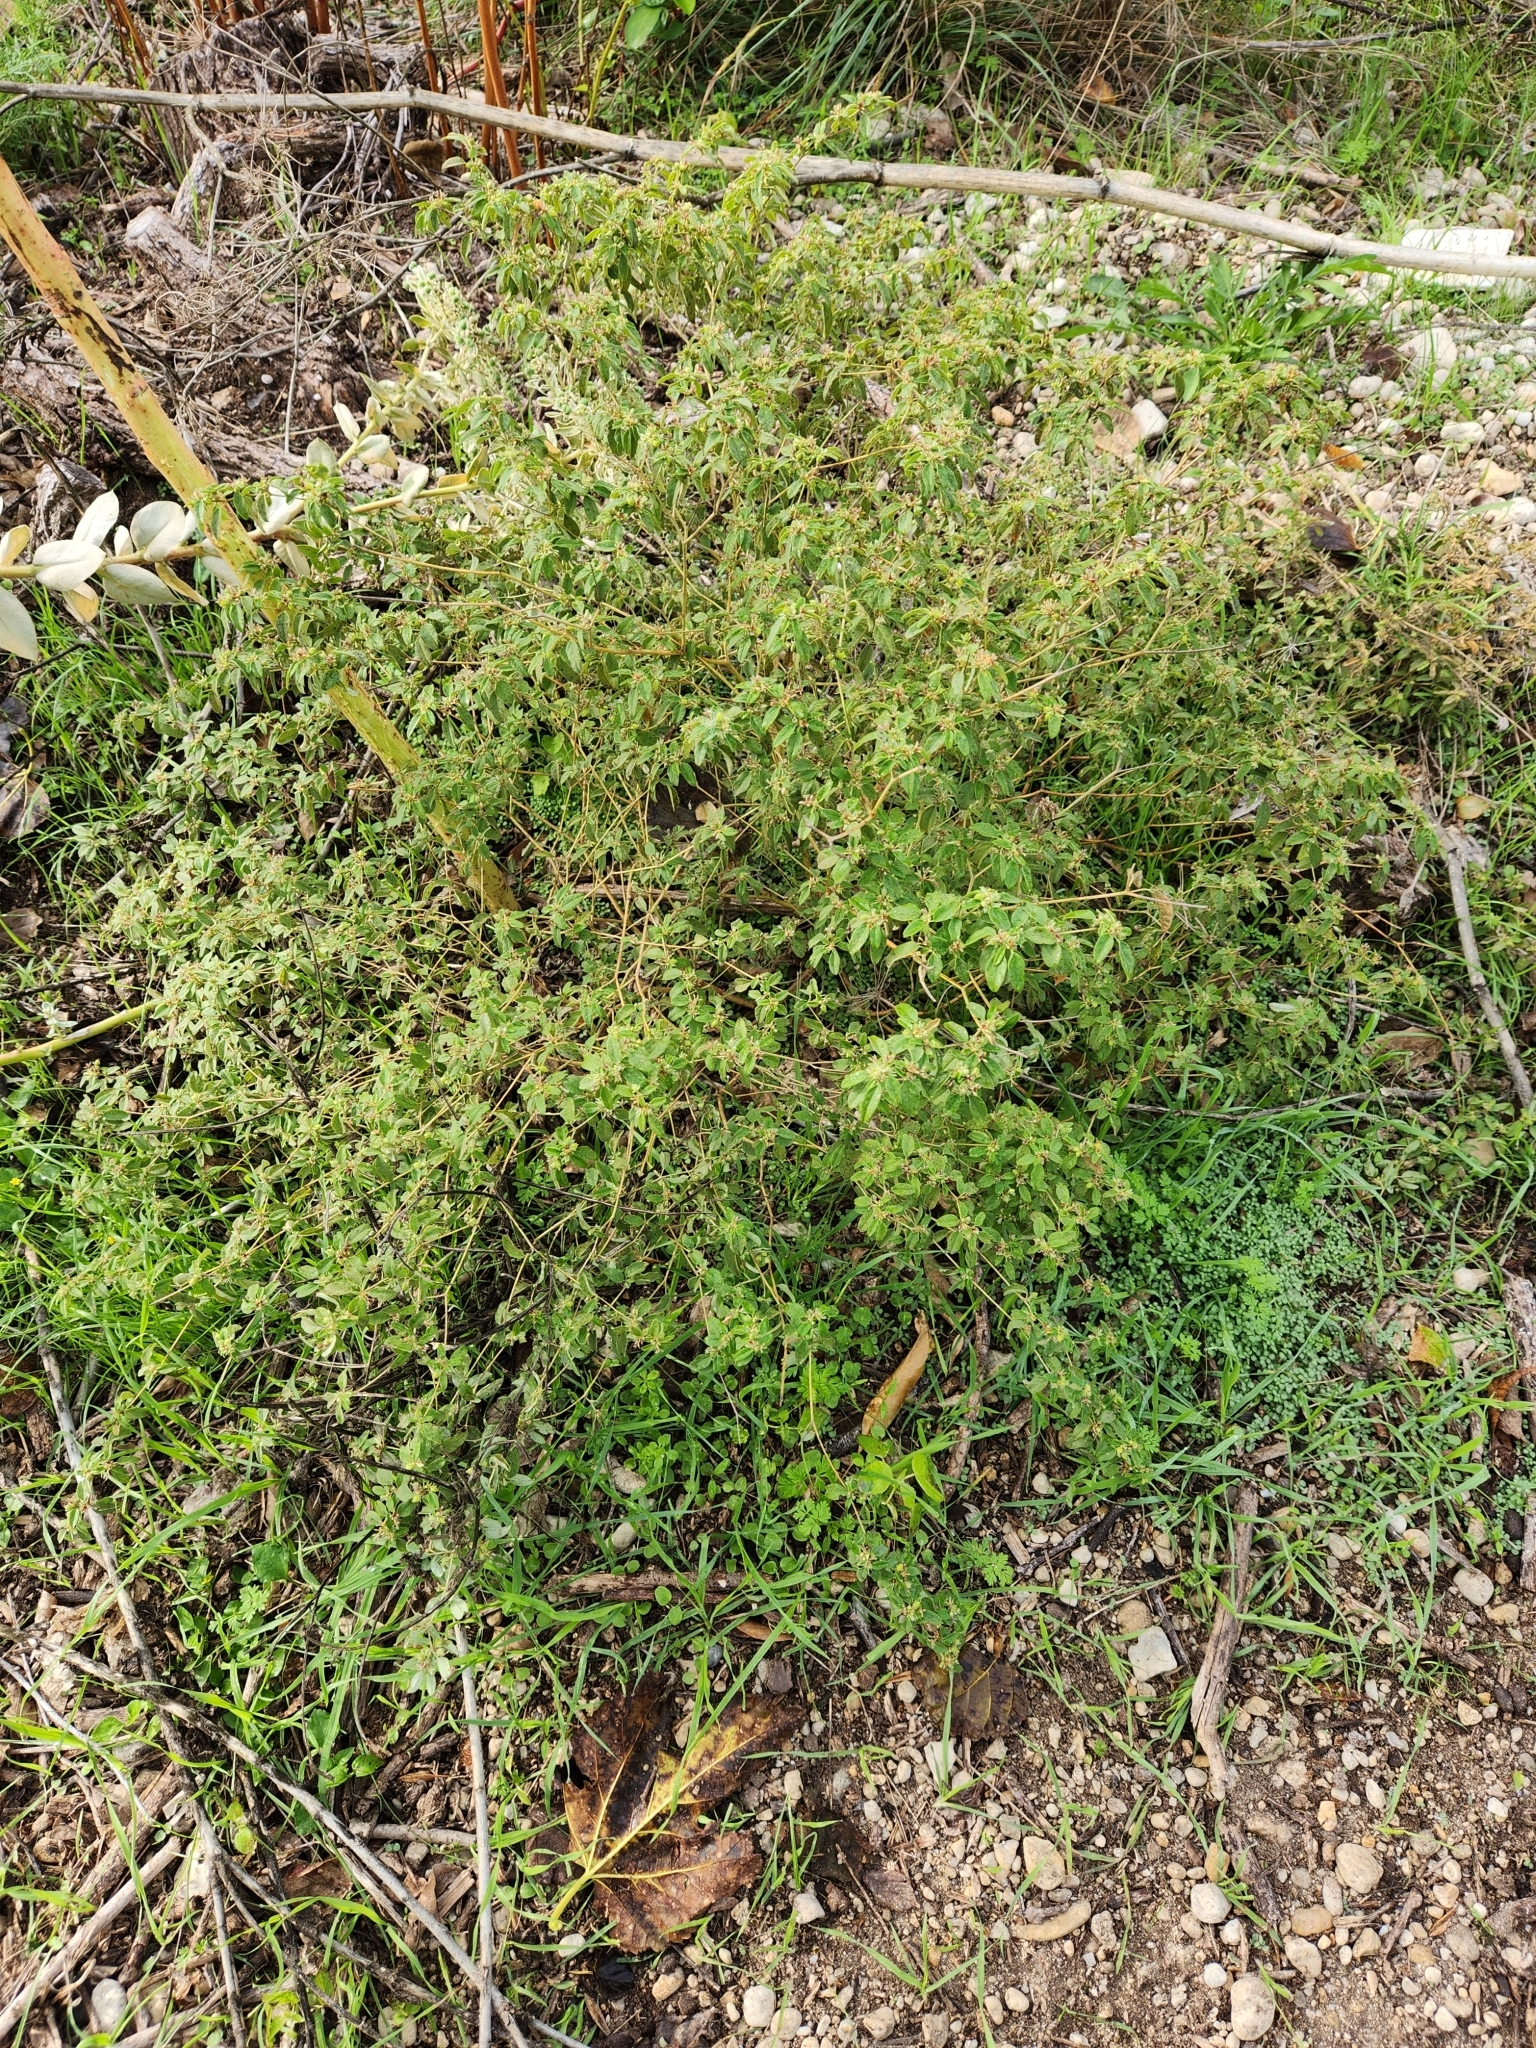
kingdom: Plantae
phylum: Tracheophyta
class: Magnoliopsida
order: Malpighiales
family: Euphorbiaceae
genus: Croton
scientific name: Croton monanthogynus
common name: One-seed croton
